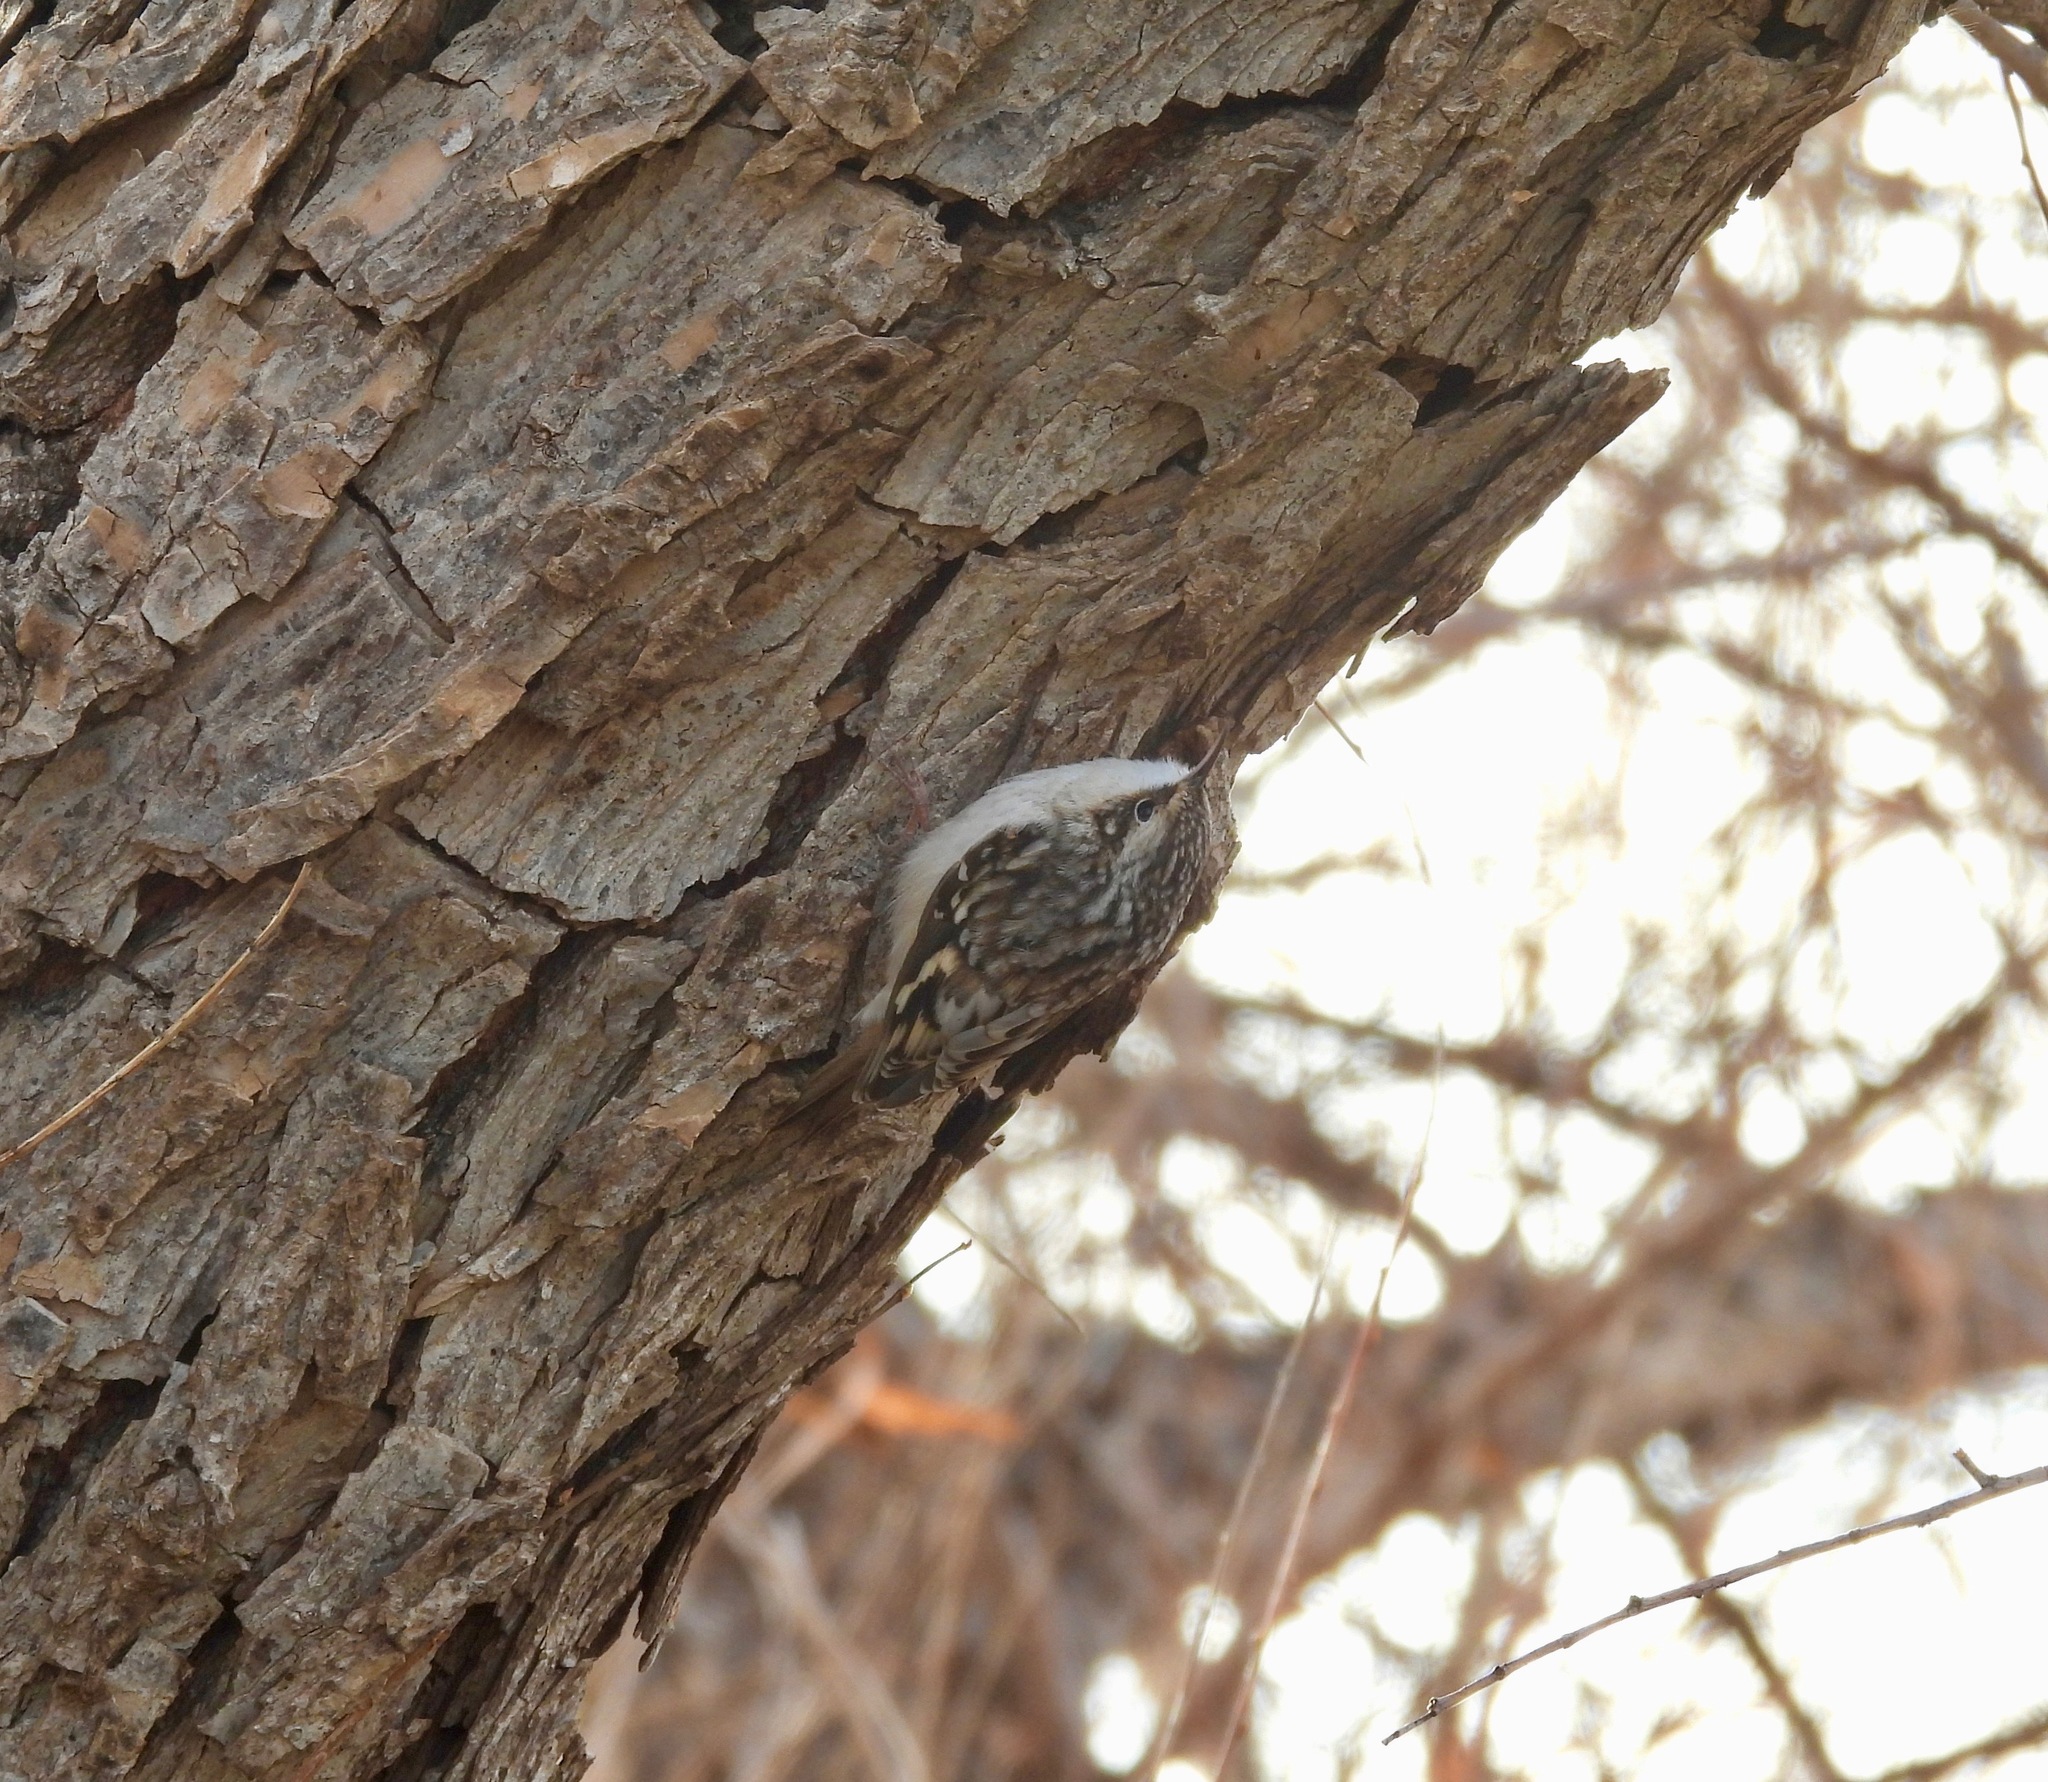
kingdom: Animalia
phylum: Chordata
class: Aves
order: Passeriformes
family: Certhiidae
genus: Certhia
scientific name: Certhia americana
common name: Brown creeper
